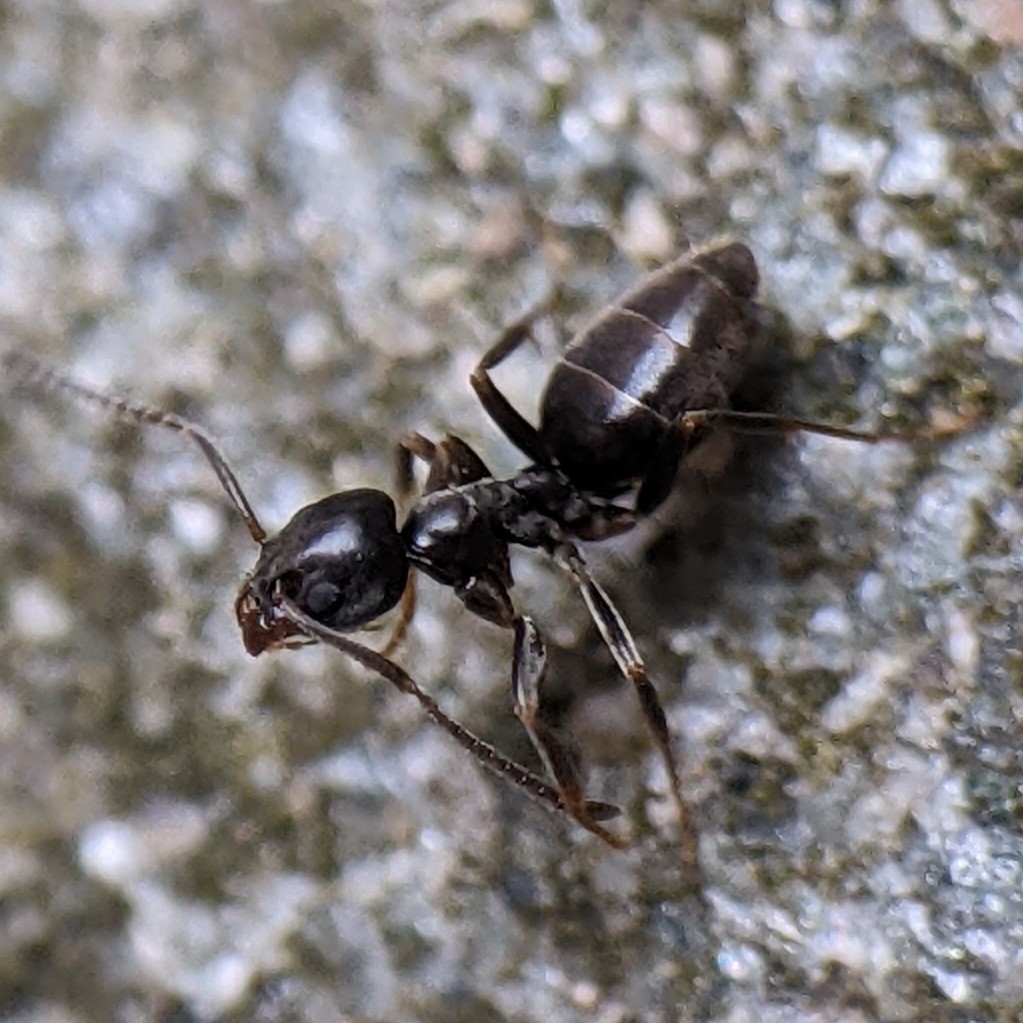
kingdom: Animalia
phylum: Arthropoda
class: Insecta
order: Hymenoptera
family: Formicidae
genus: Tapinoma
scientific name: Tapinoma sessile
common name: Odorous house ant
